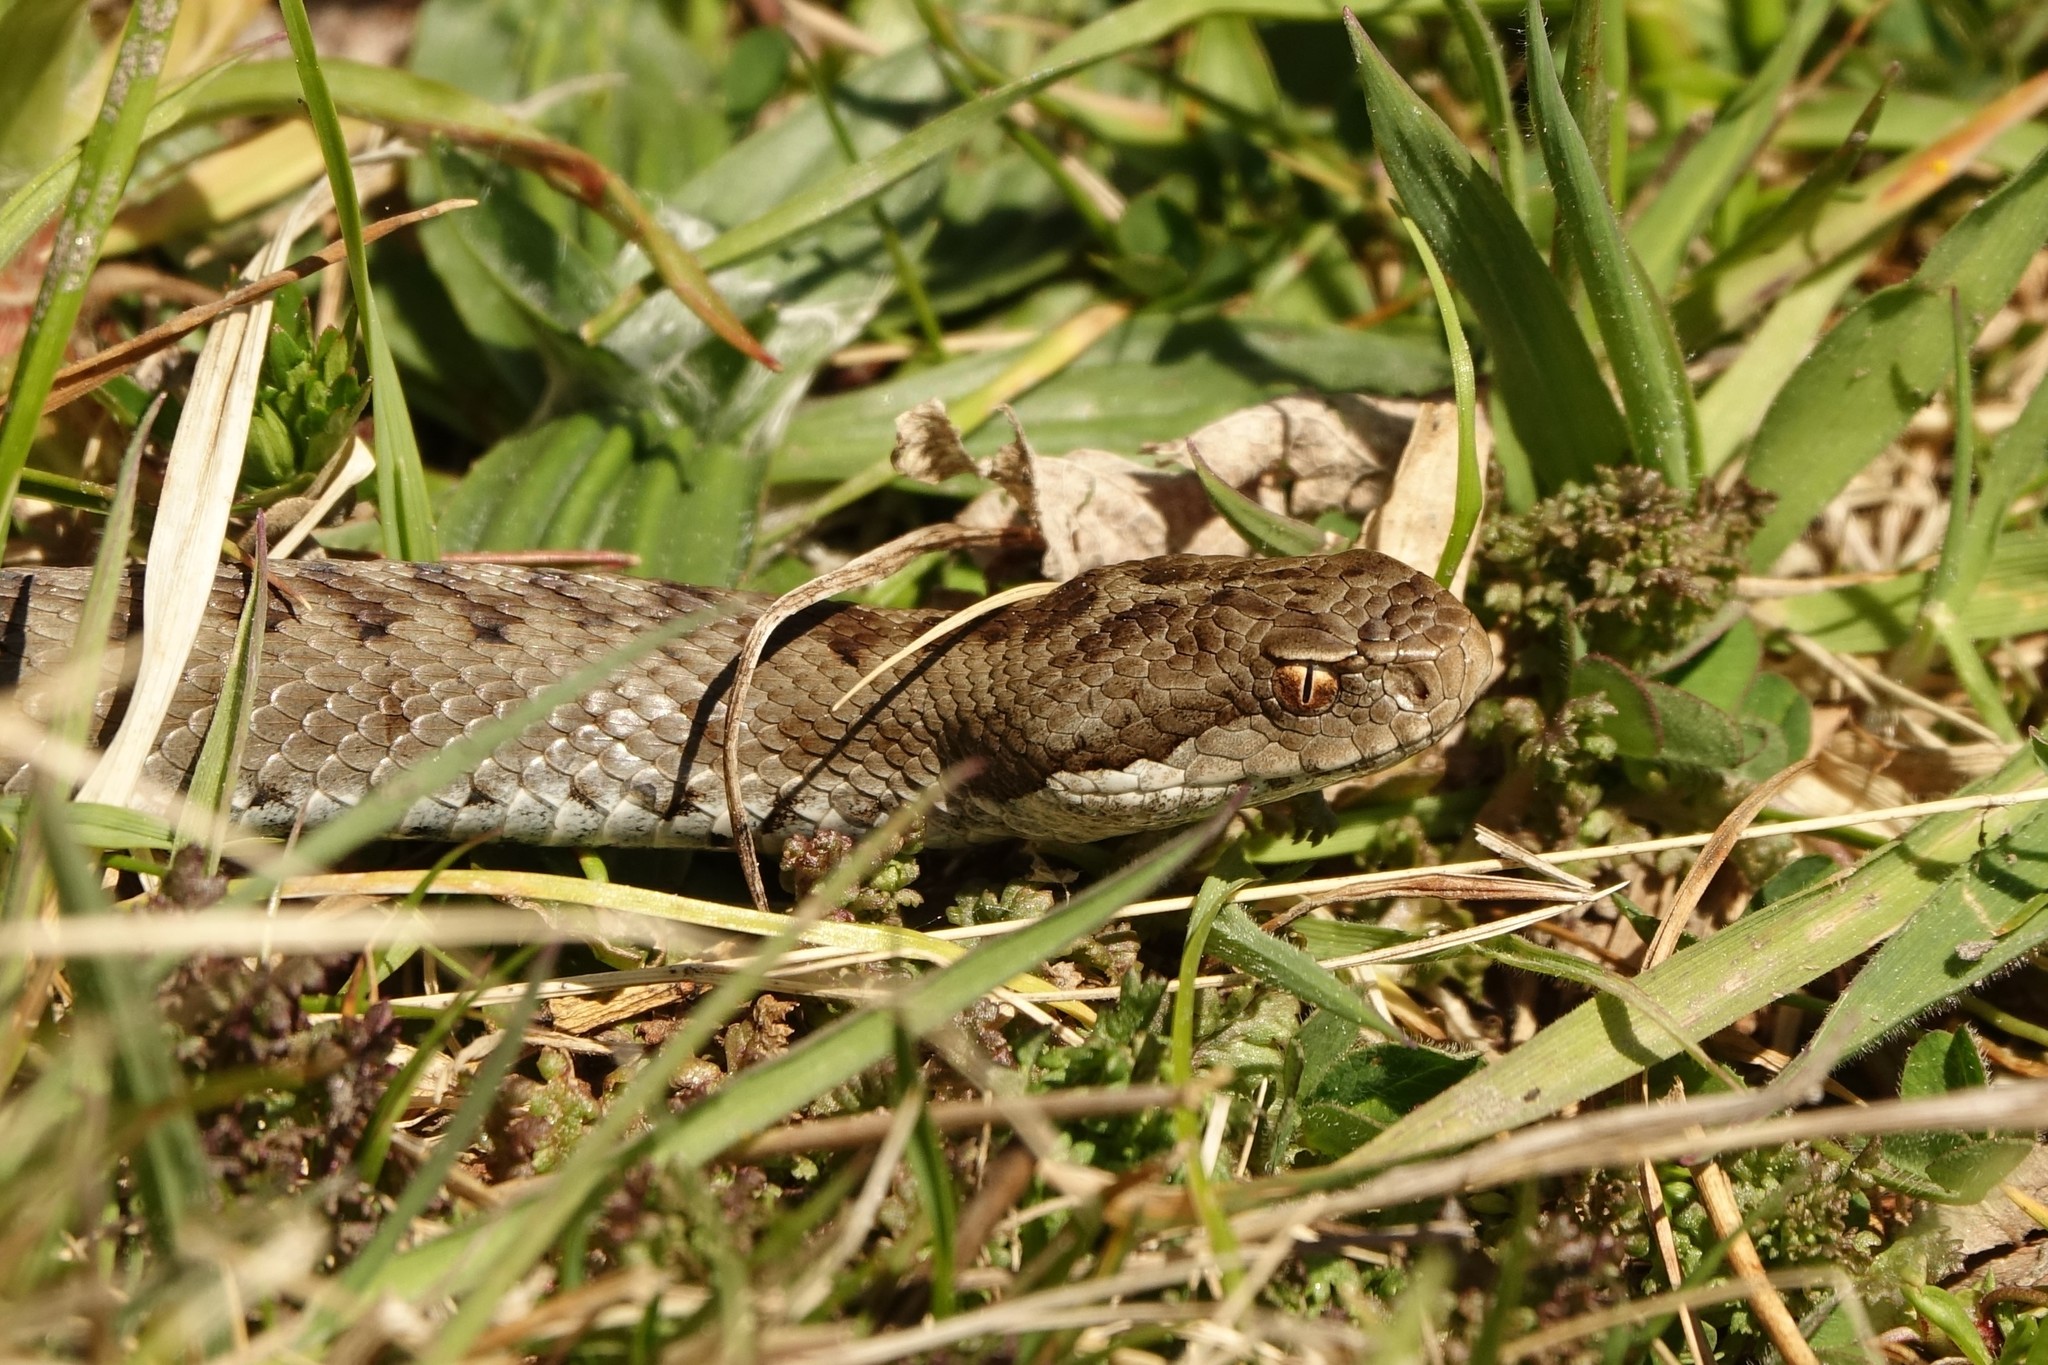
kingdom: Animalia
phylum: Chordata
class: Squamata
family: Viperidae
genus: Vipera
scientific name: Vipera seoanei
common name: Portugese viper
